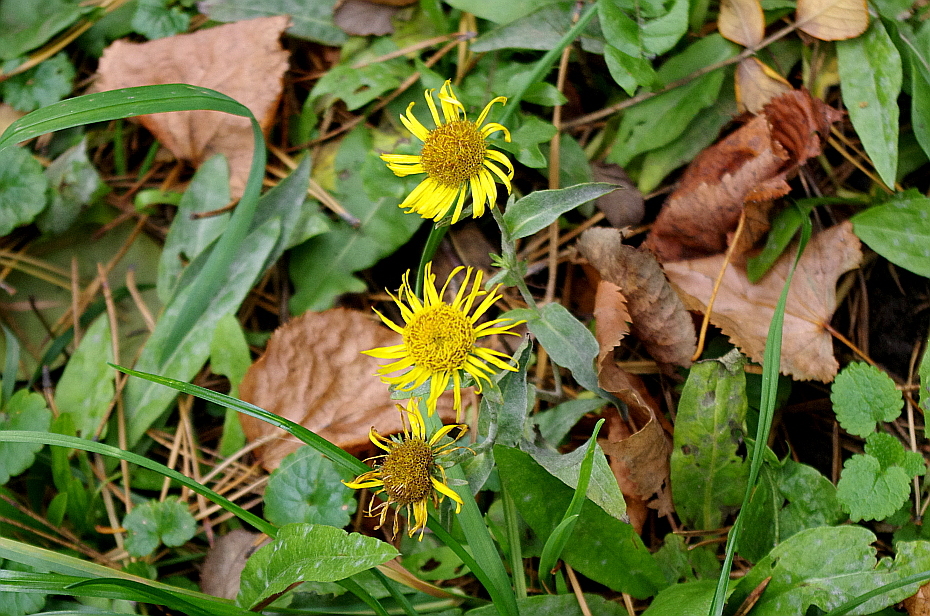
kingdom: Plantae
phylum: Tracheophyta
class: Magnoliopsida
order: Asterales
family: Asteraceae
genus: Pentanema
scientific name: Pentanema britannicum
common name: British elecampane
